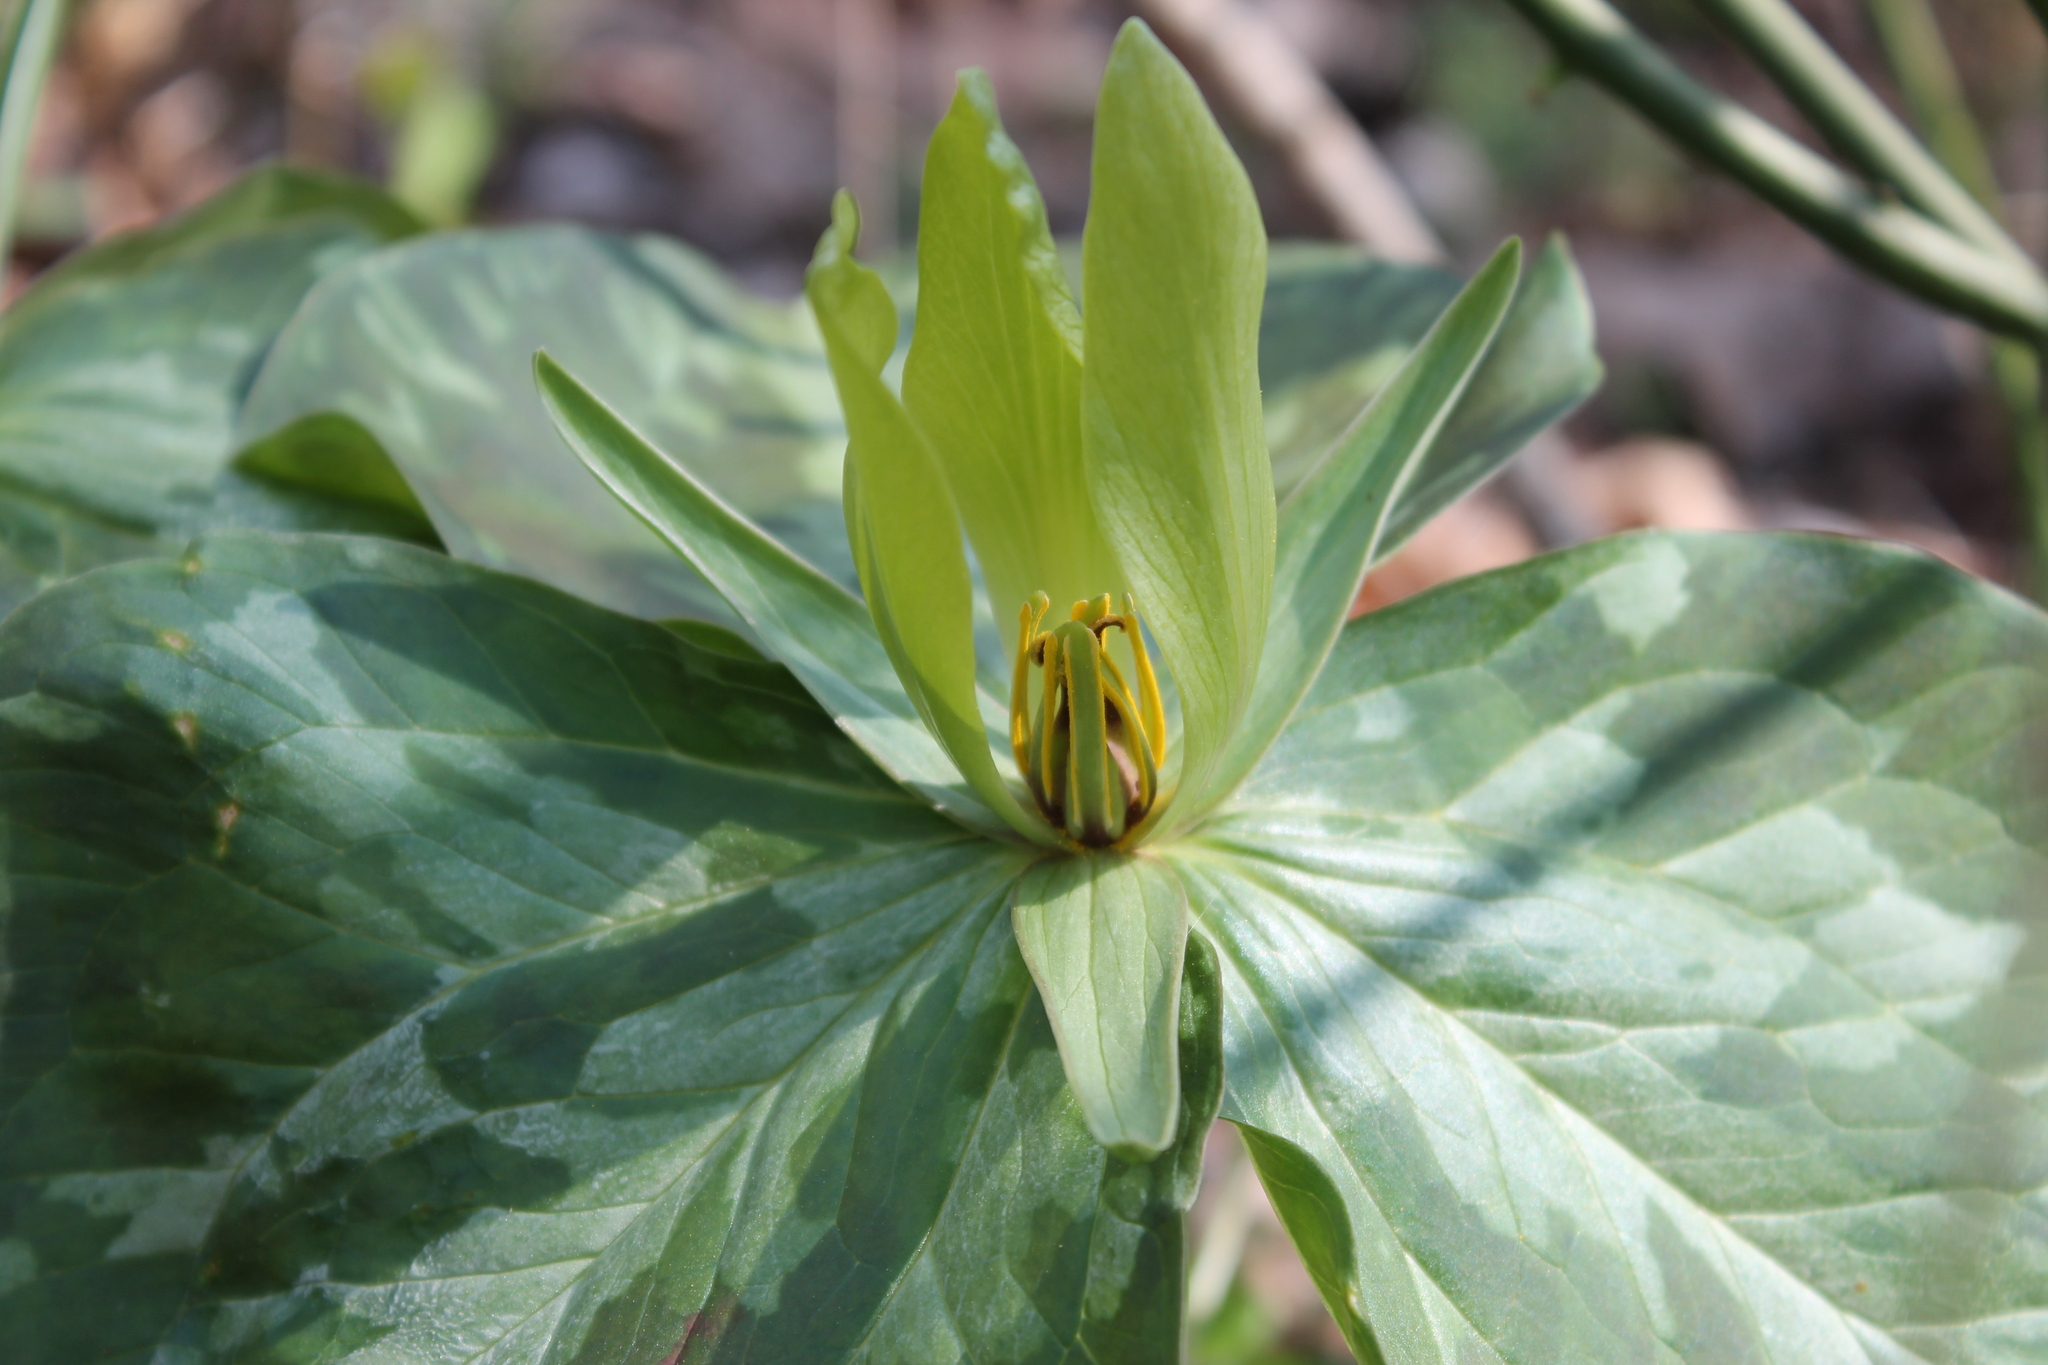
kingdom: Plantae
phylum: Tracheophyta
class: Liliopsida
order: Liliales
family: Melanthiaceae
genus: Trillium
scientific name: Trillium cuneatum
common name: Cuneate trillium
